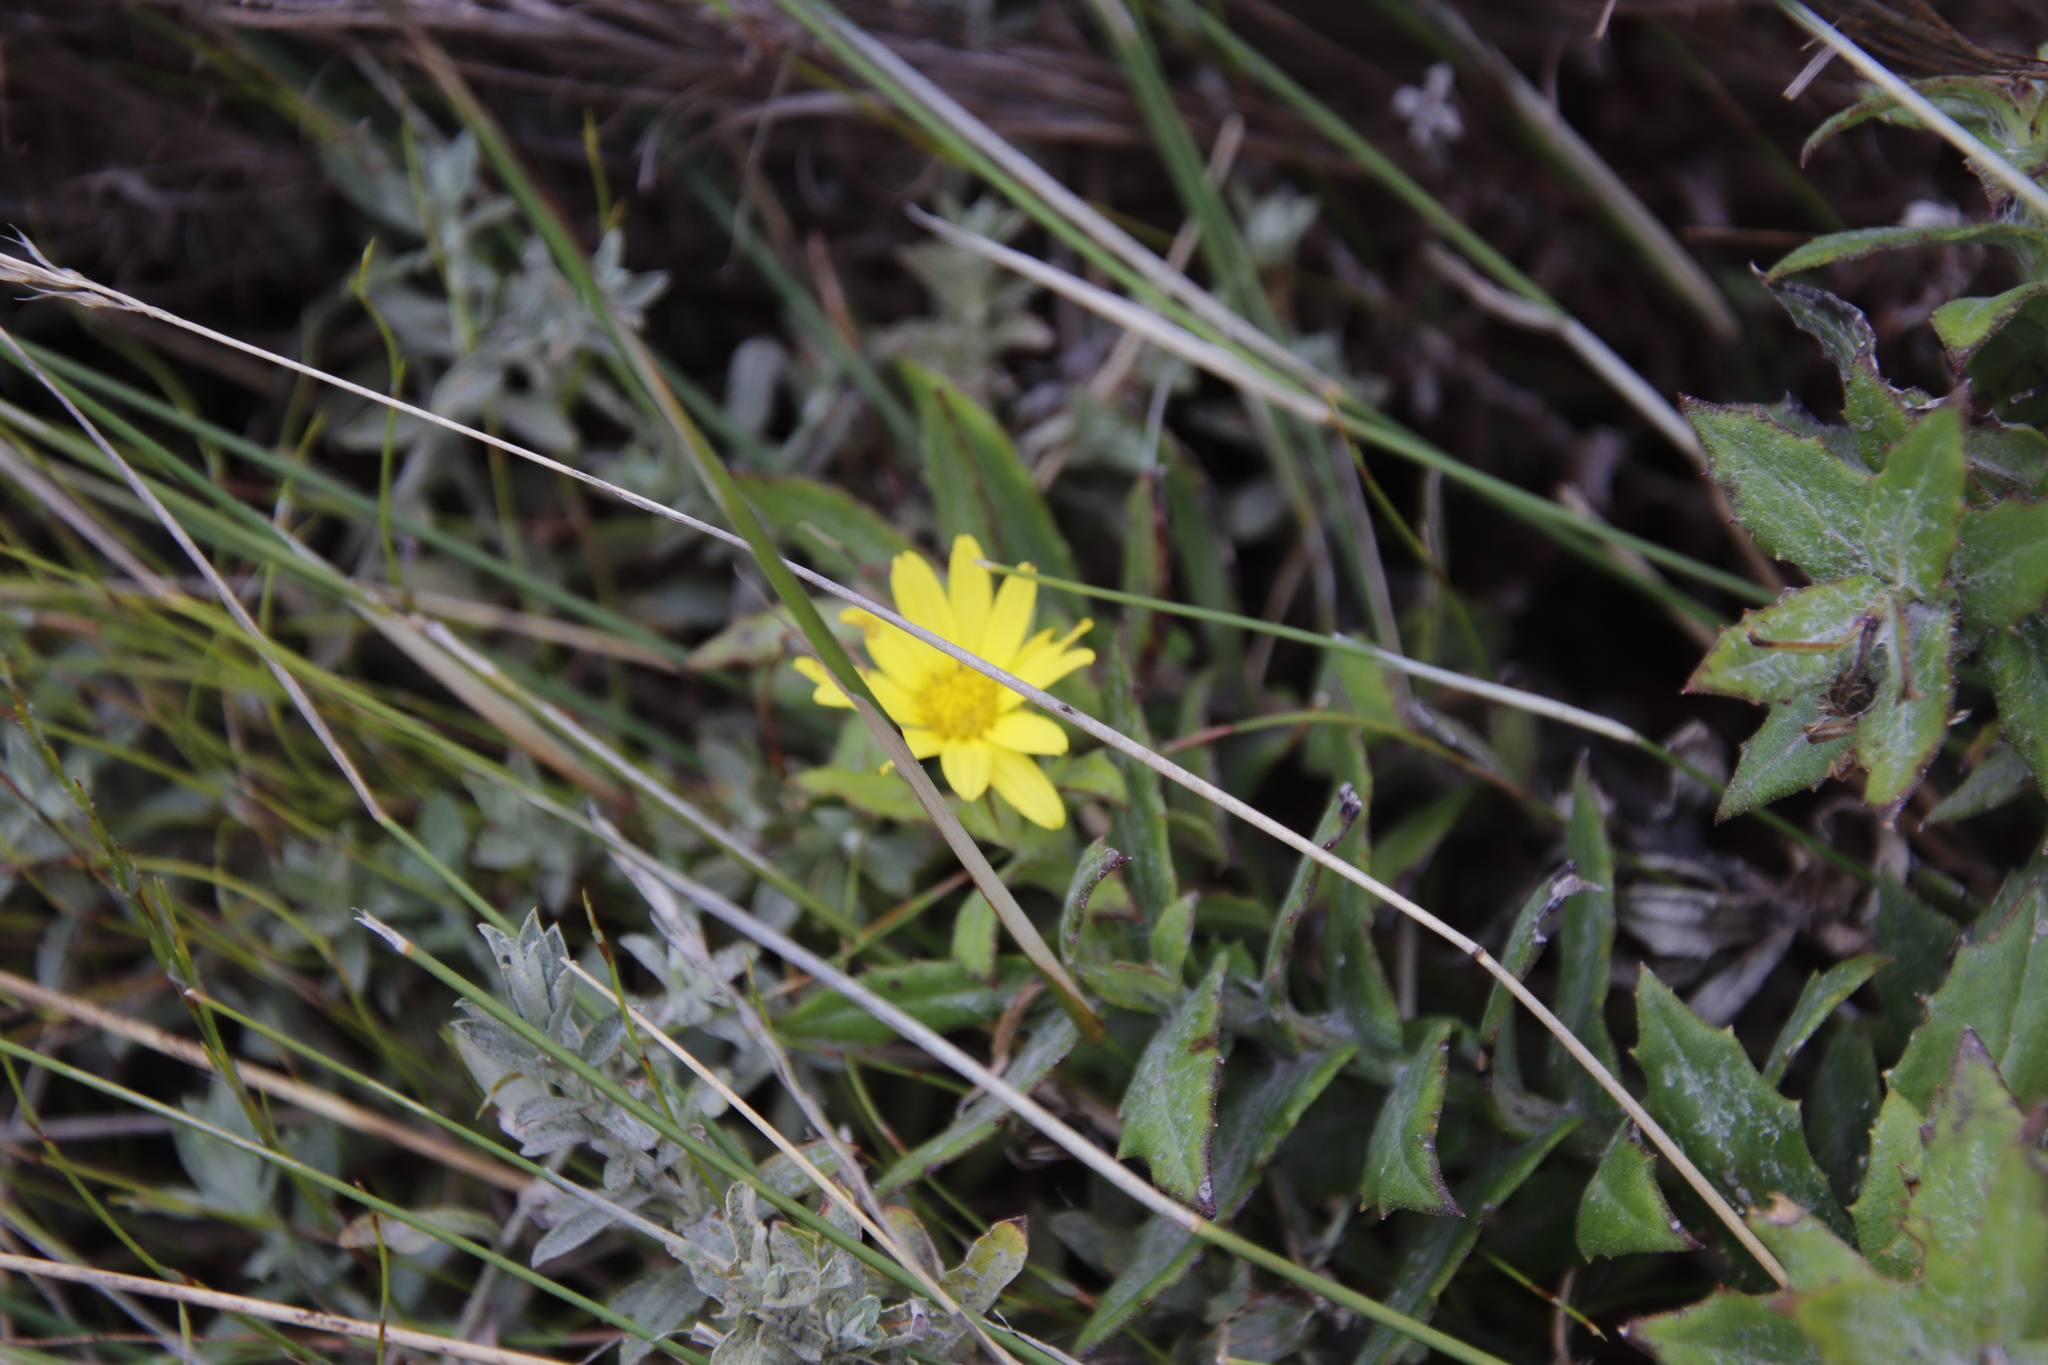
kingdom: Plantae
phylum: Tracheophyta
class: Magnoliopsida
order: Asterales
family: Asteraceae
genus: Osteospermum
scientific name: Osteospermum ilicifolium
